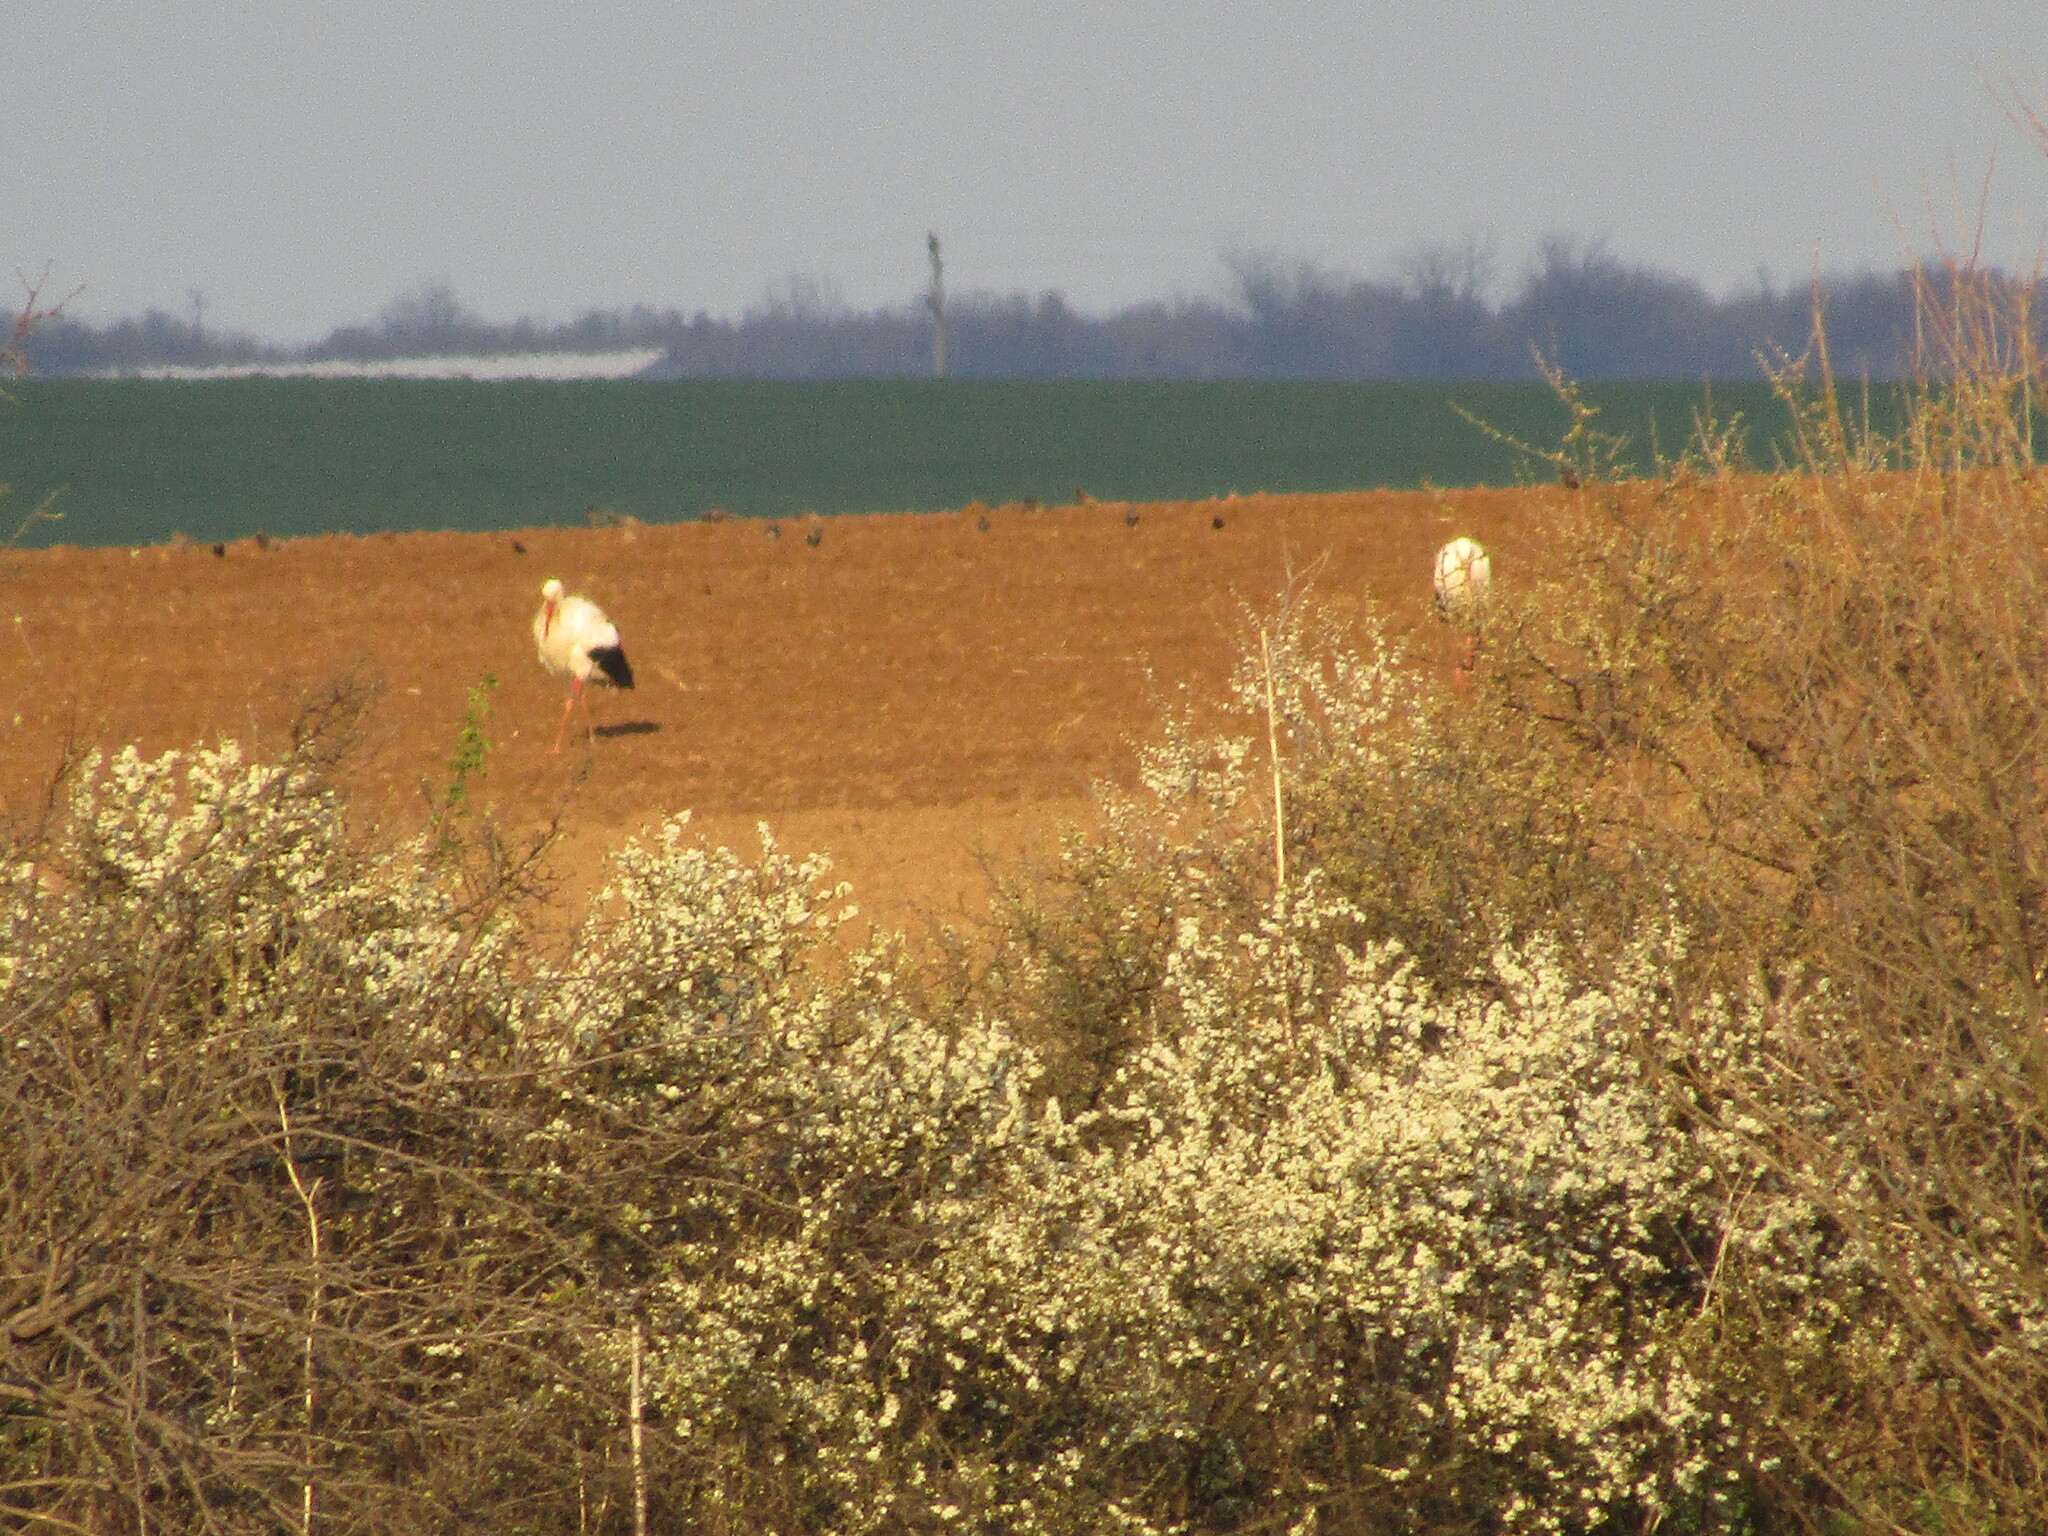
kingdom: Animalia
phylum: Chordata
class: Aves
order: Ciconiiformes
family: Ciconiidae
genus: Ciconia
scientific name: Ciconia ciconia
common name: White stork
